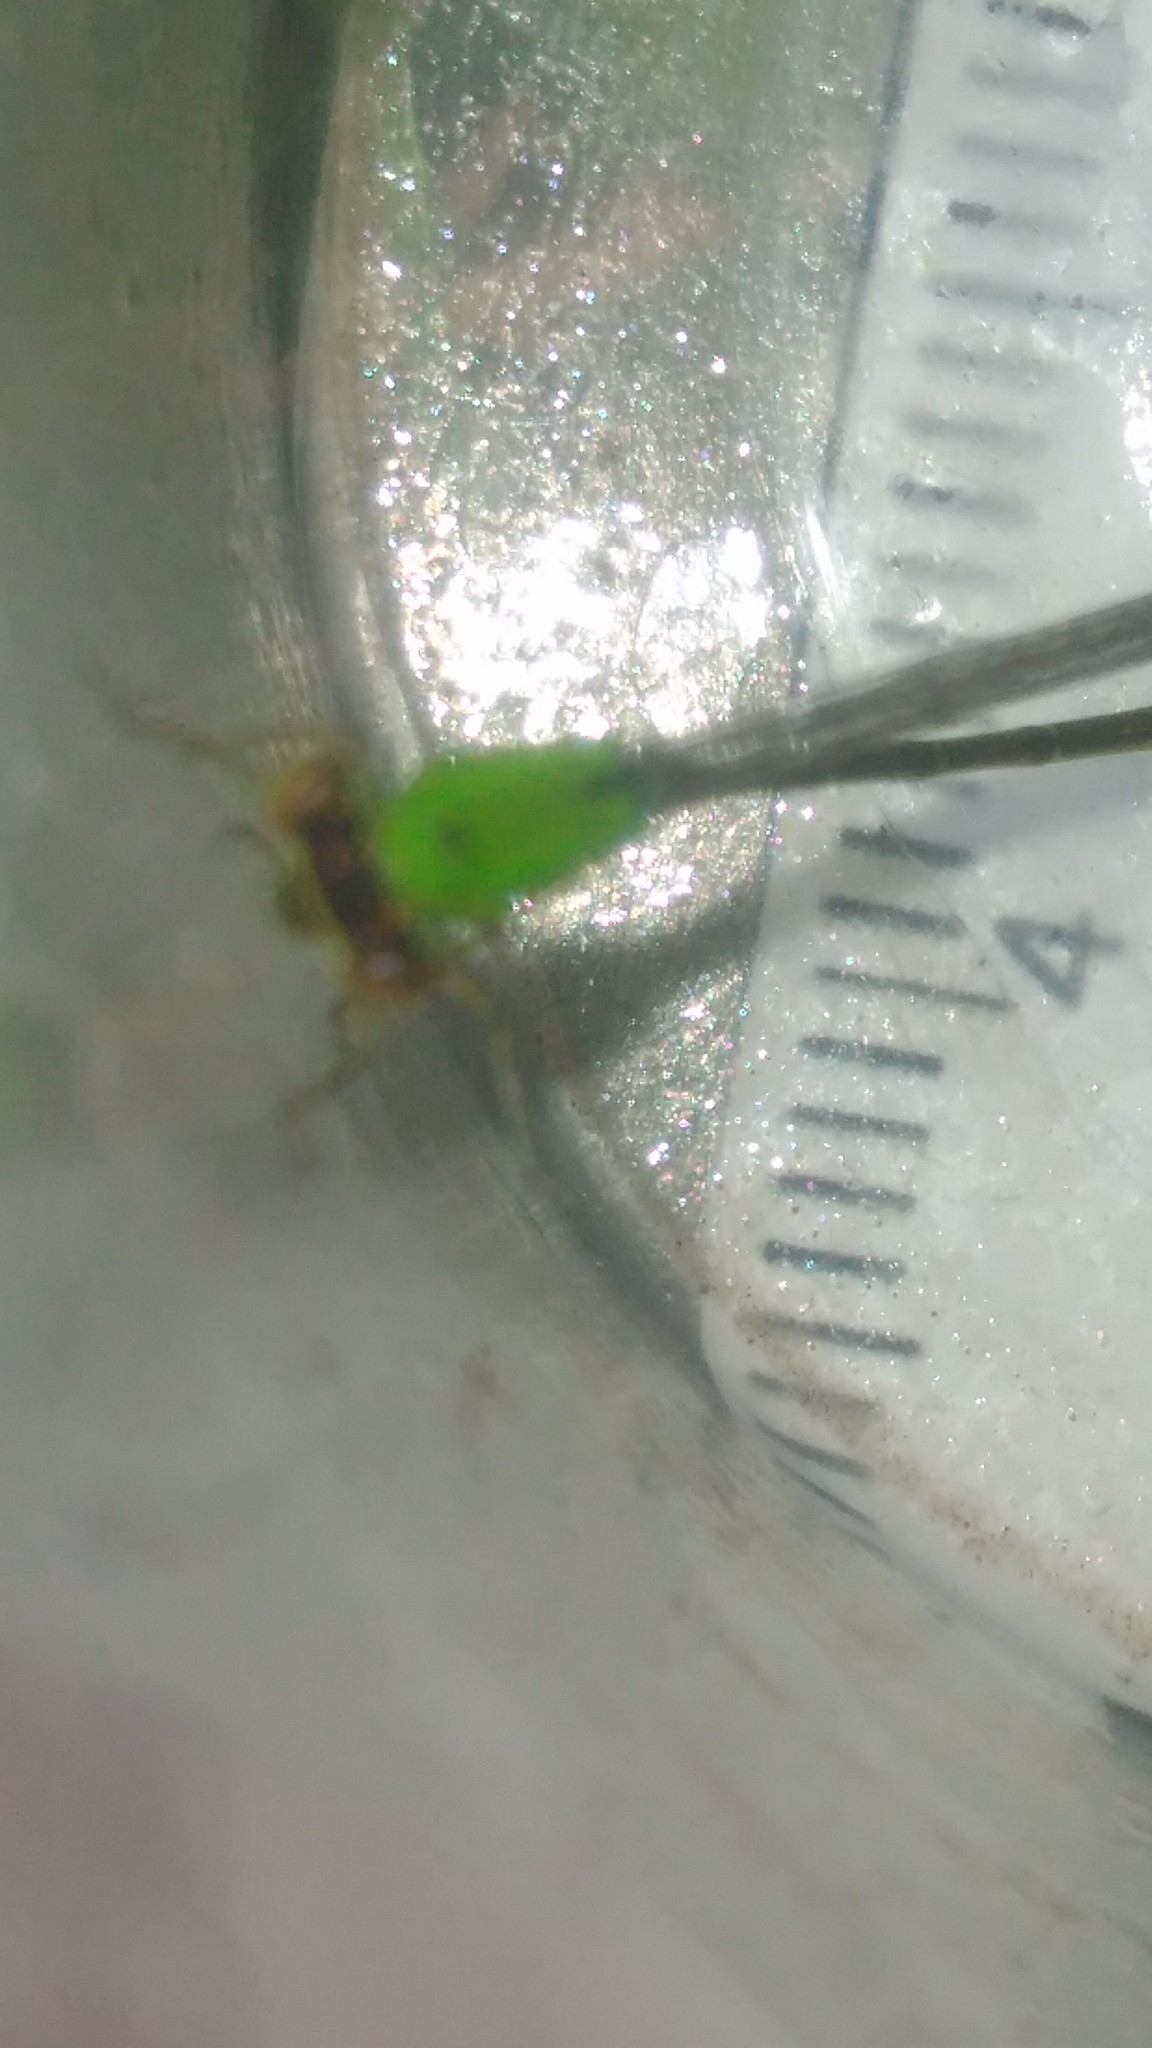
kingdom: Animalia
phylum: Arthropoda
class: Insecta
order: Odonata
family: Coenagrionidae
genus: Ischnura
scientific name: Ischnura capreolus
